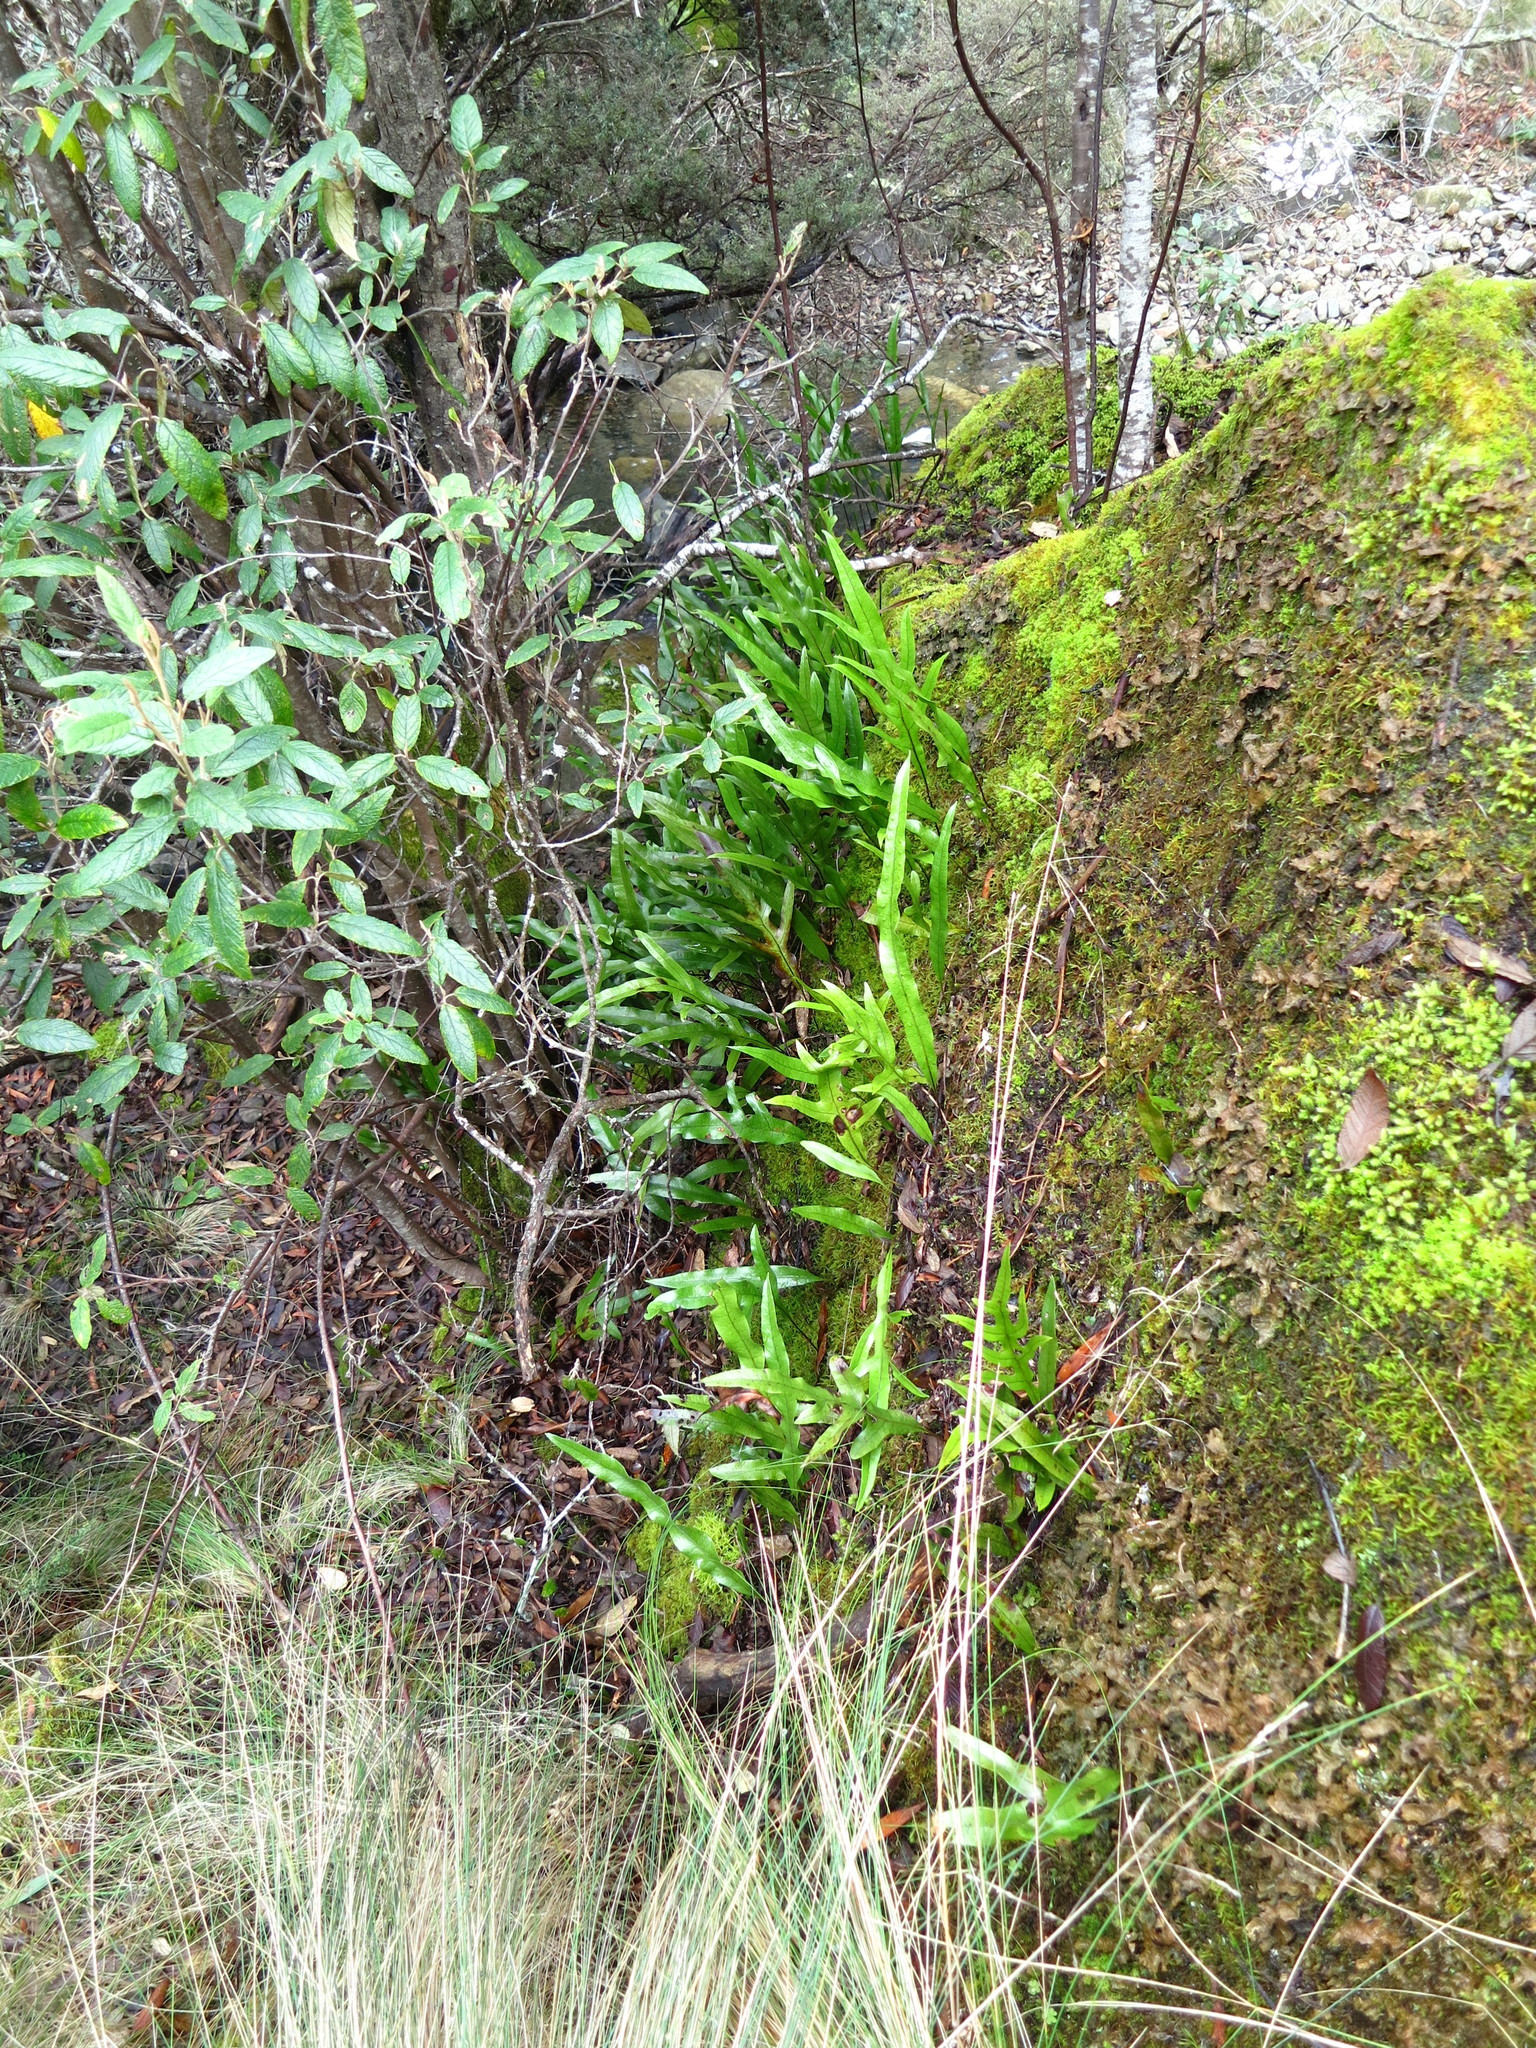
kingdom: Plantae
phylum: Tracheophyta
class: Polypodiopsida
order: Polypodiales
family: Polypodiaceae
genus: Lecanopteris
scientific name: Lecanopteris pustulata
